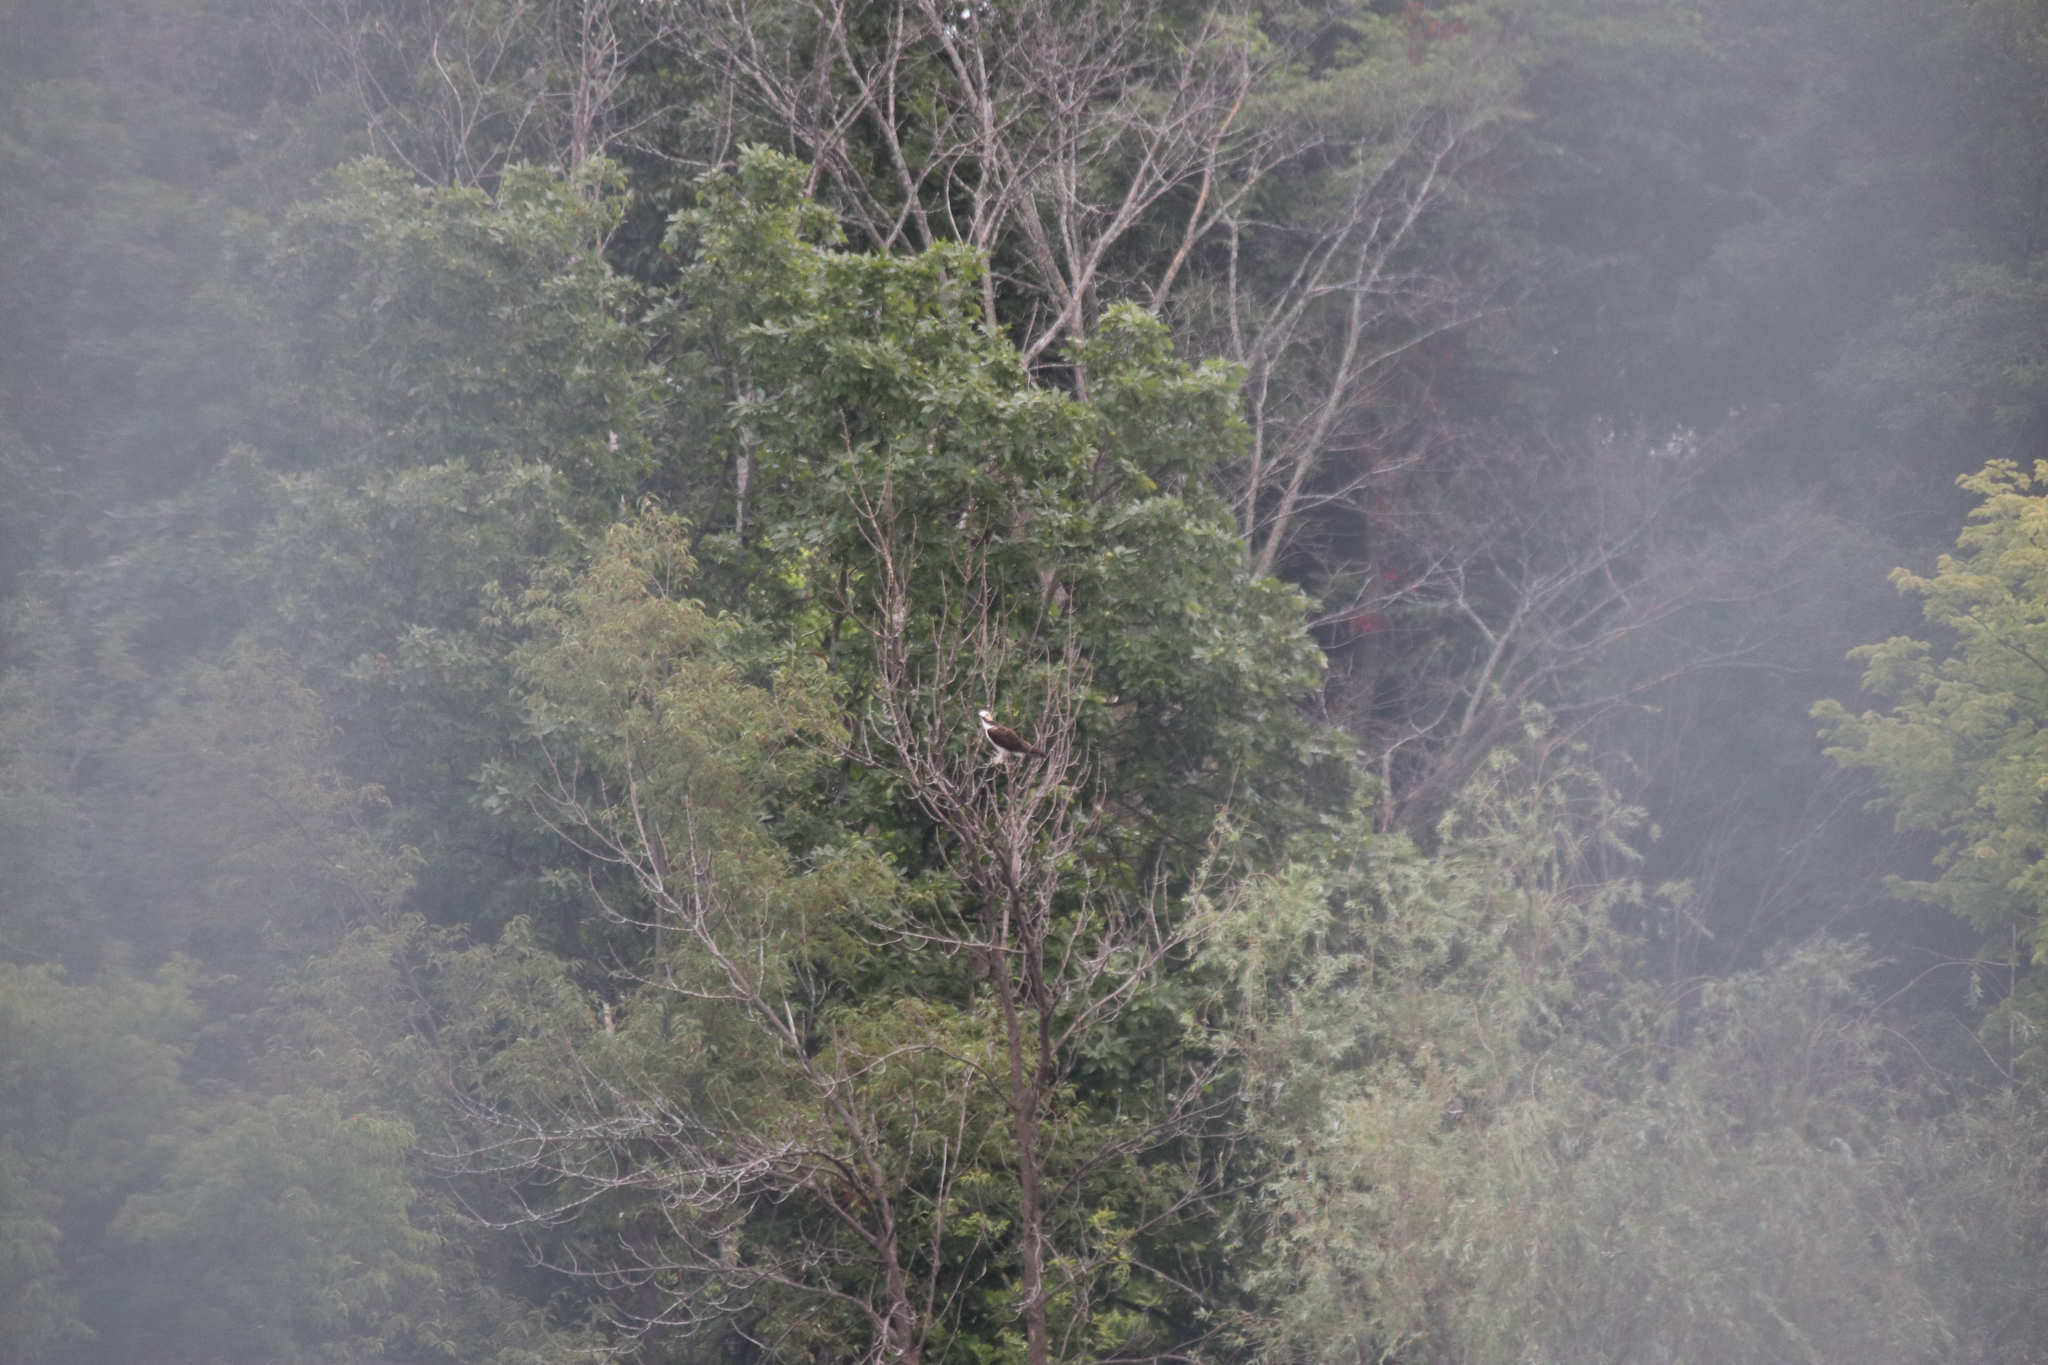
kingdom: Animalia
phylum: Chordata
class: Aves
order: Accipitriformes
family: Pandionidae
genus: Pandion
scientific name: Pandion haliaetus
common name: Osprey
